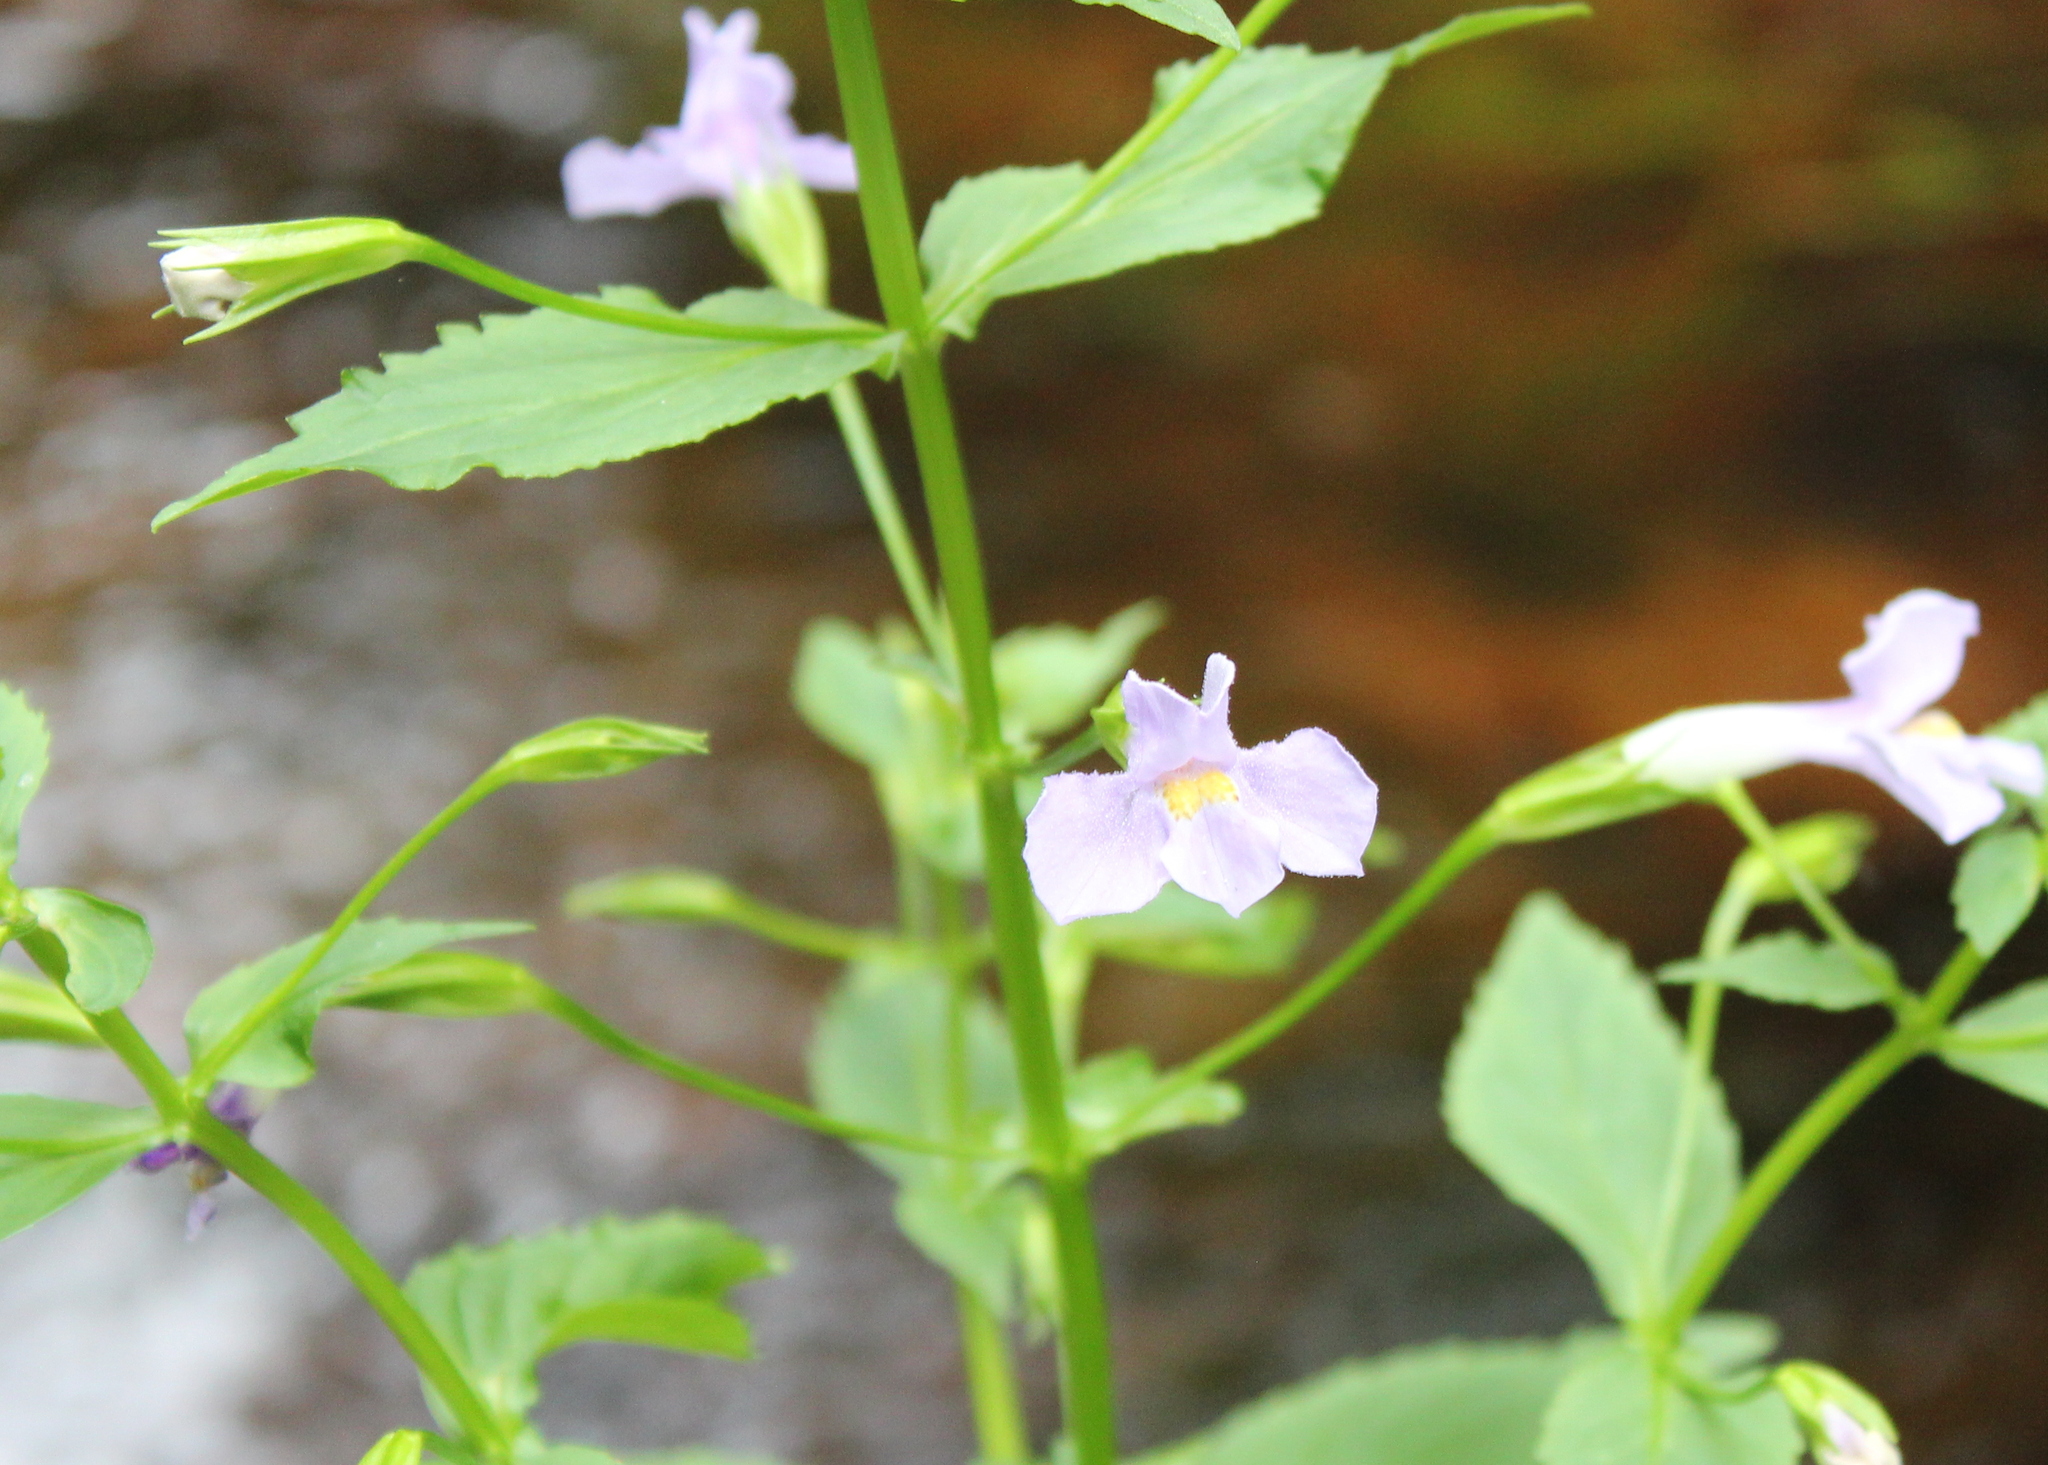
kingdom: Plantae
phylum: Tracheophyta
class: Magnoliopsida
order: Lamiales
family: Phrymaceae
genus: Mimulus
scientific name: Mimulus ringens
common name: Allegheny monkeyflower
